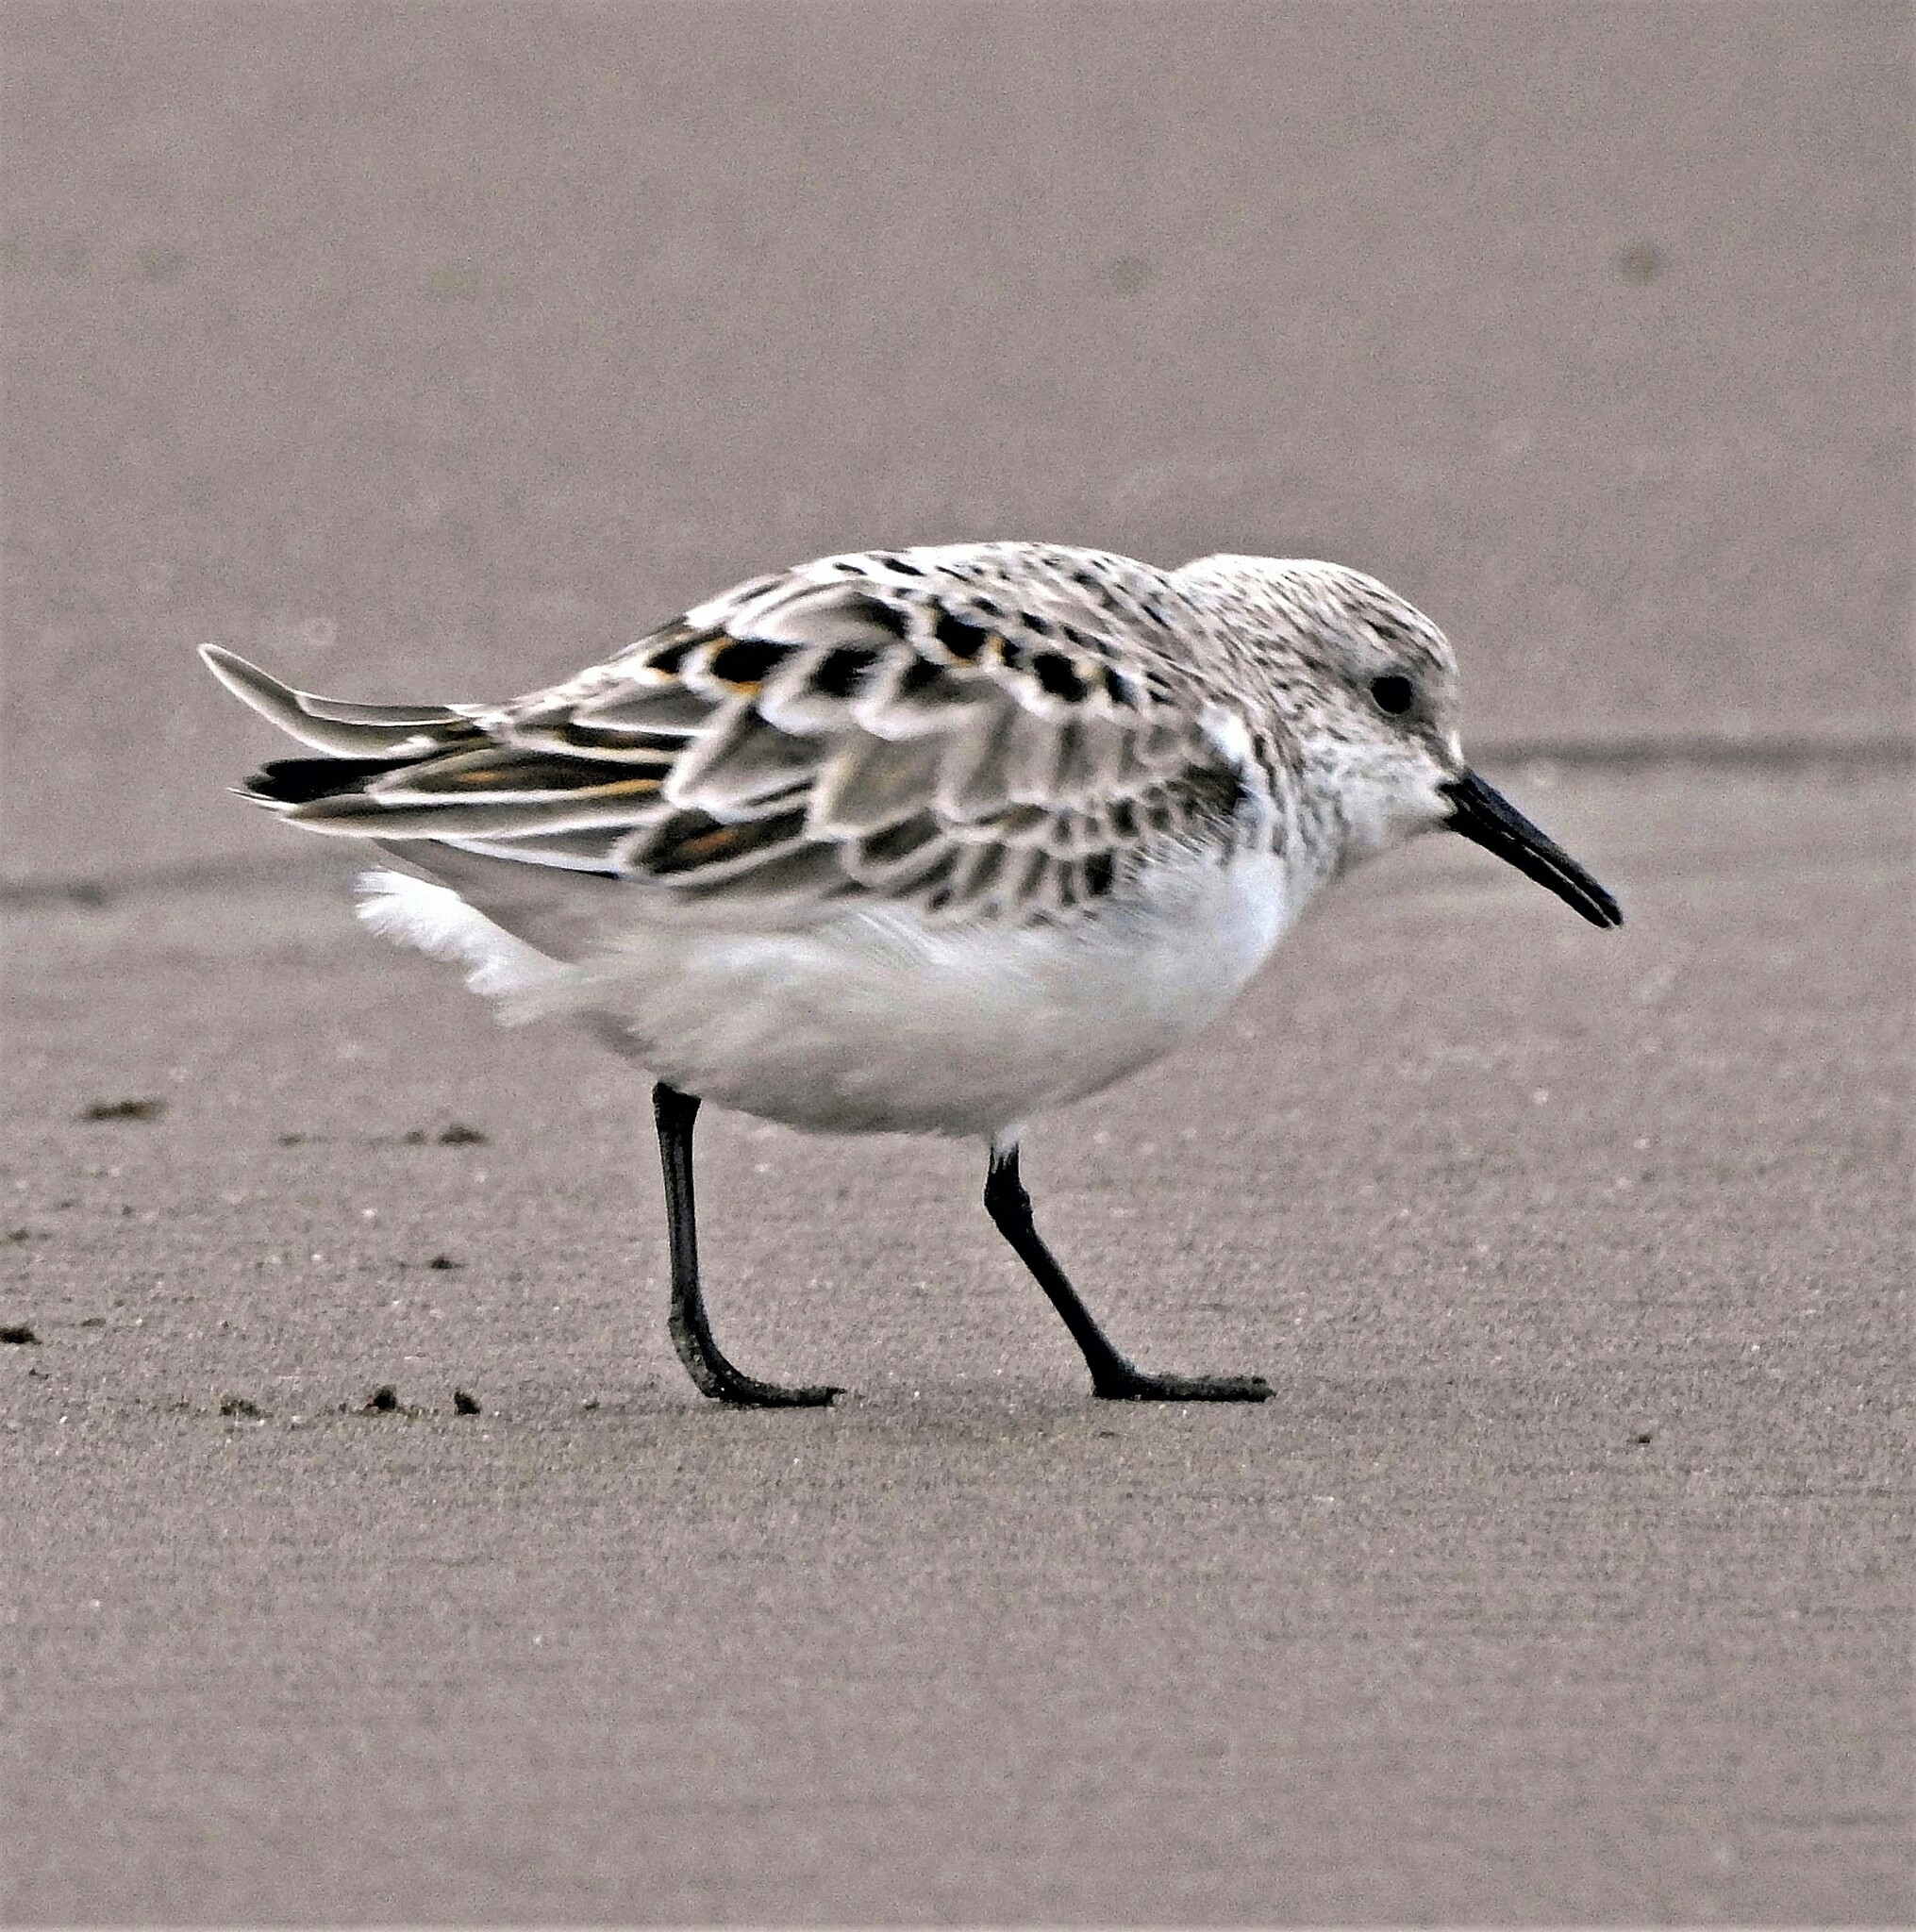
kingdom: Animalia
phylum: Chordata
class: Aves
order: Charadriiformes
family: Scolopacidae
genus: Calidris
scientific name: Calidris alba
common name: Sanderling
